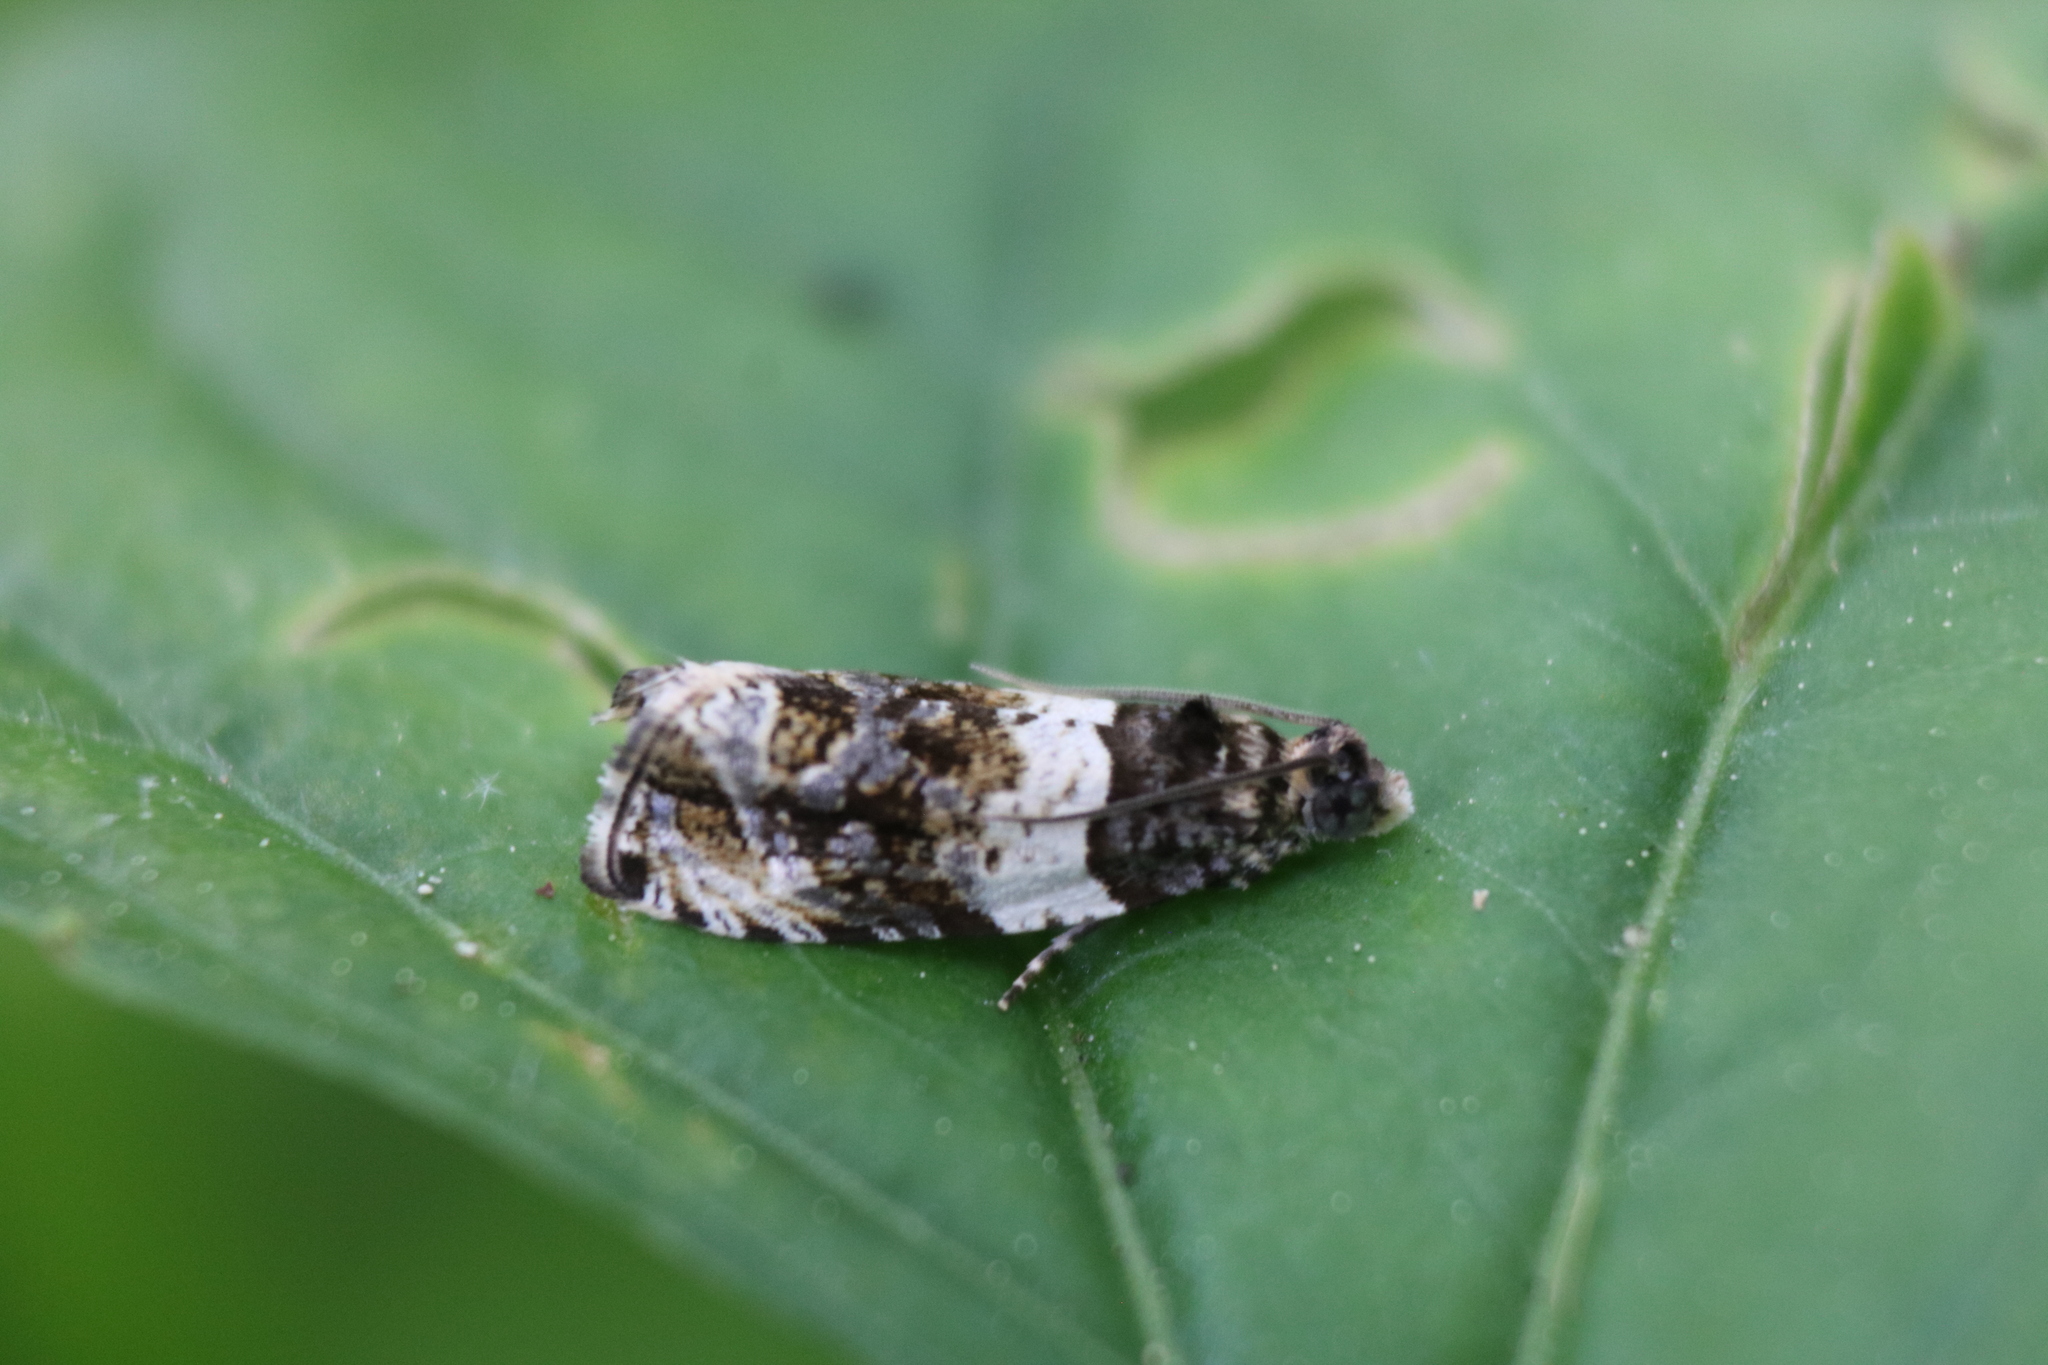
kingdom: Animalia
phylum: Arthropoda
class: Insecta
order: Lepidoptera
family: Tortricidae
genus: Olethreutes
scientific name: Olethreutes fasciatana
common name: Banded olethreutes moth
